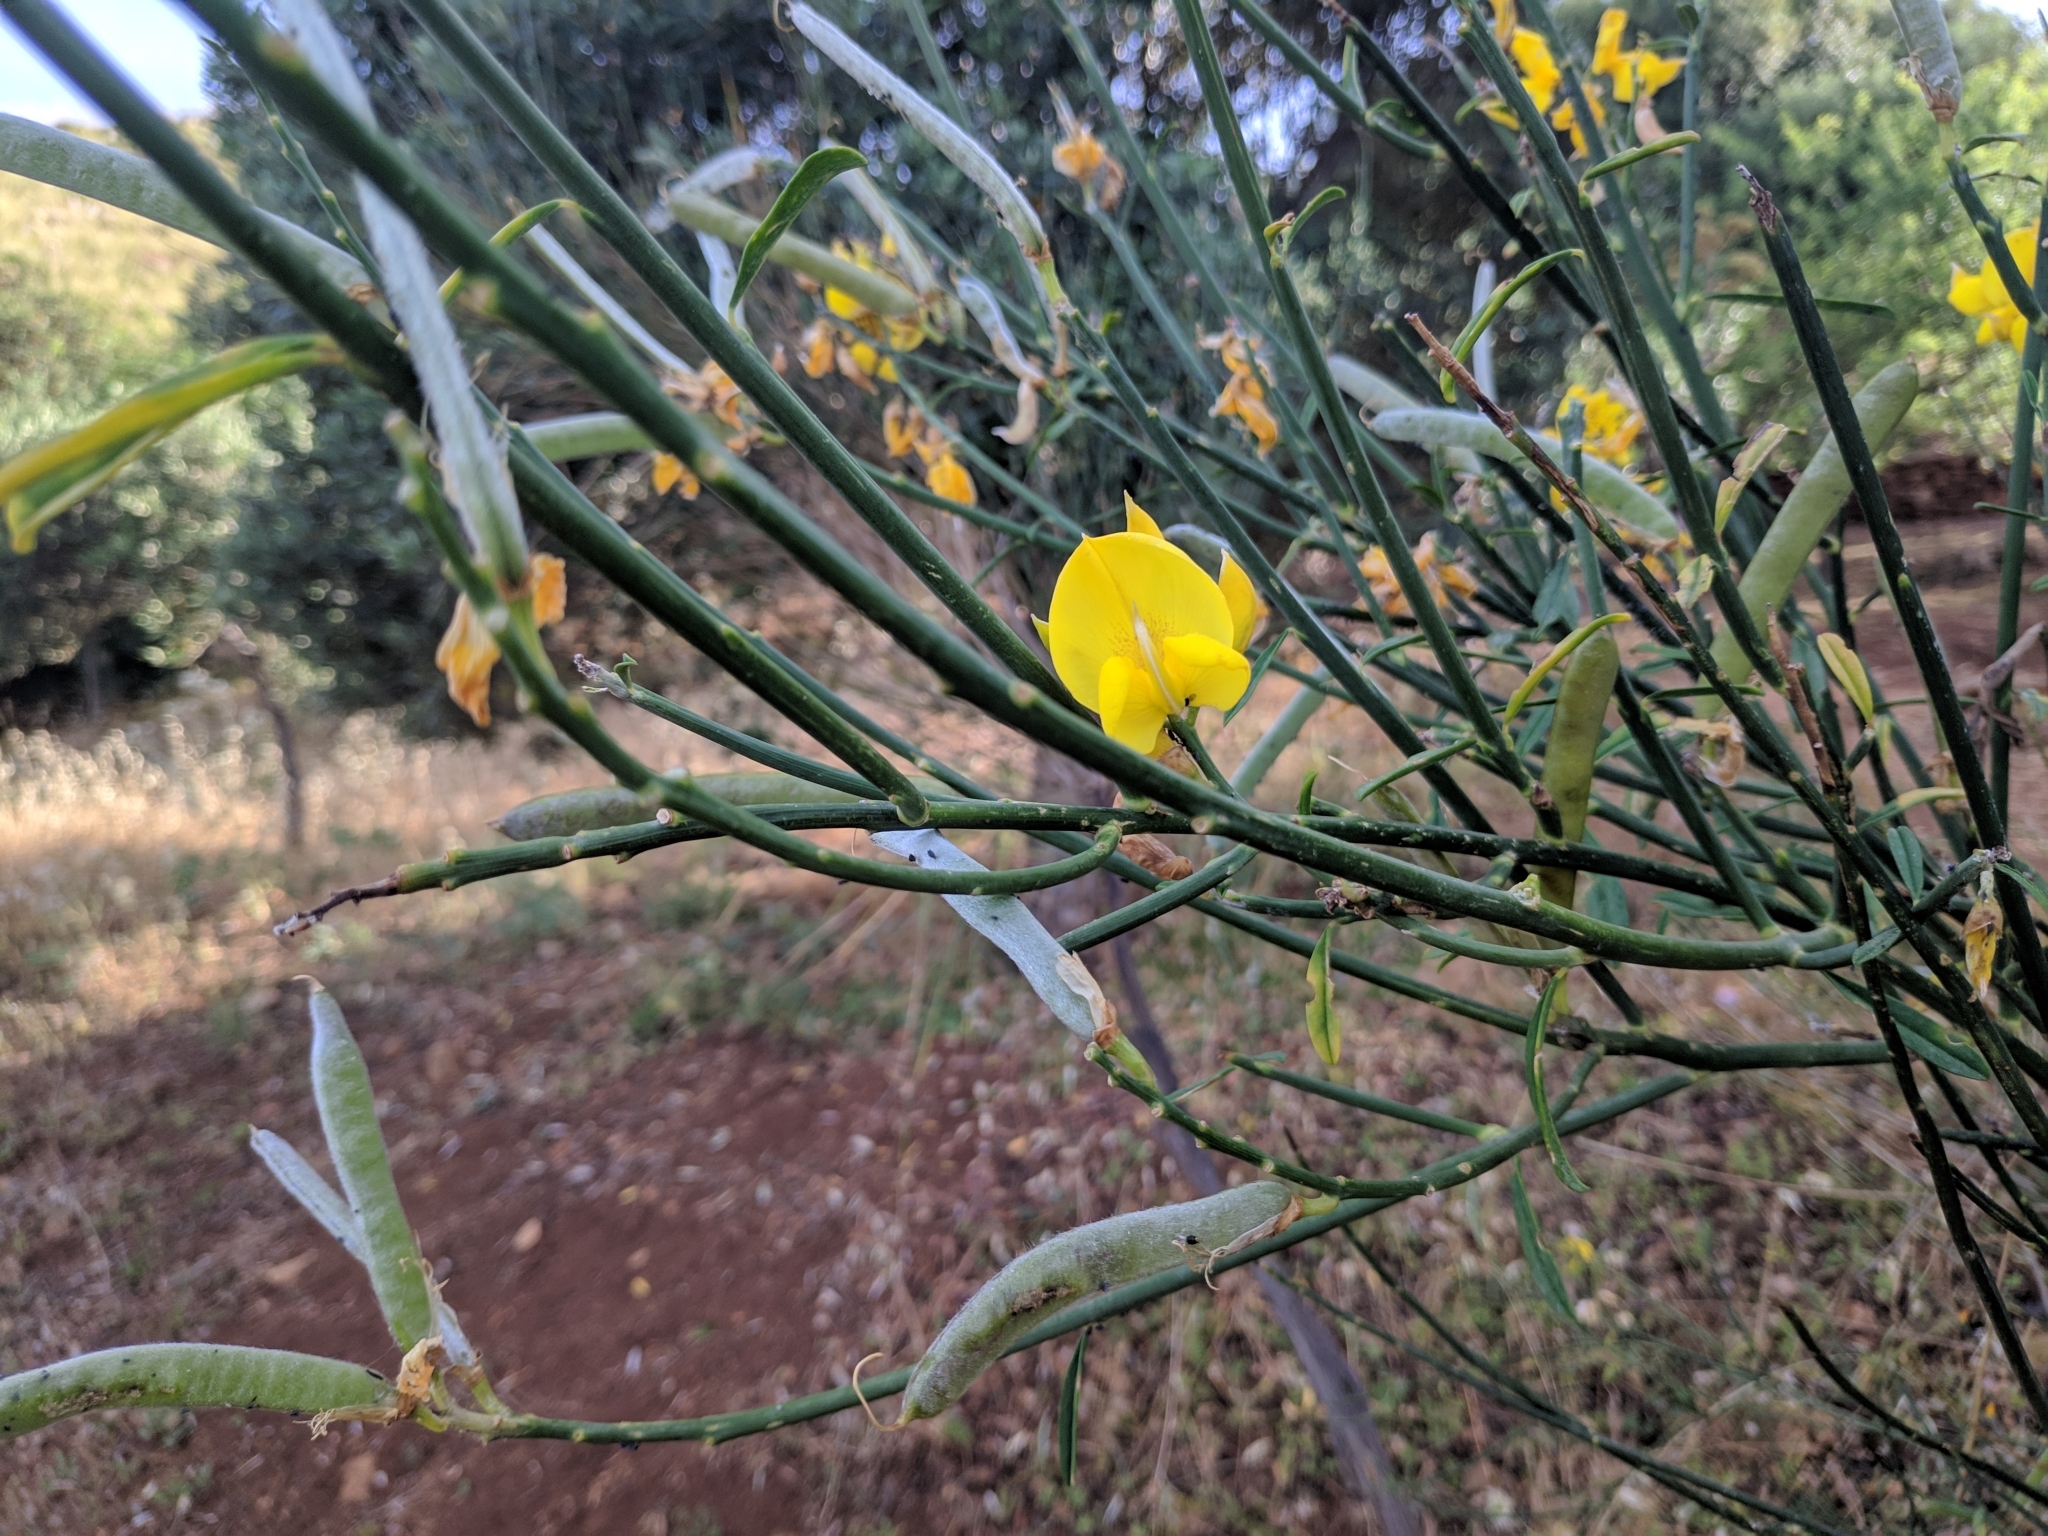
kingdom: Plantae
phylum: Tracheophyta
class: Magnoliopsida
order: Fabales
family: Fabaceae
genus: Spartium
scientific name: Spartium junceum
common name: Spanish broom
